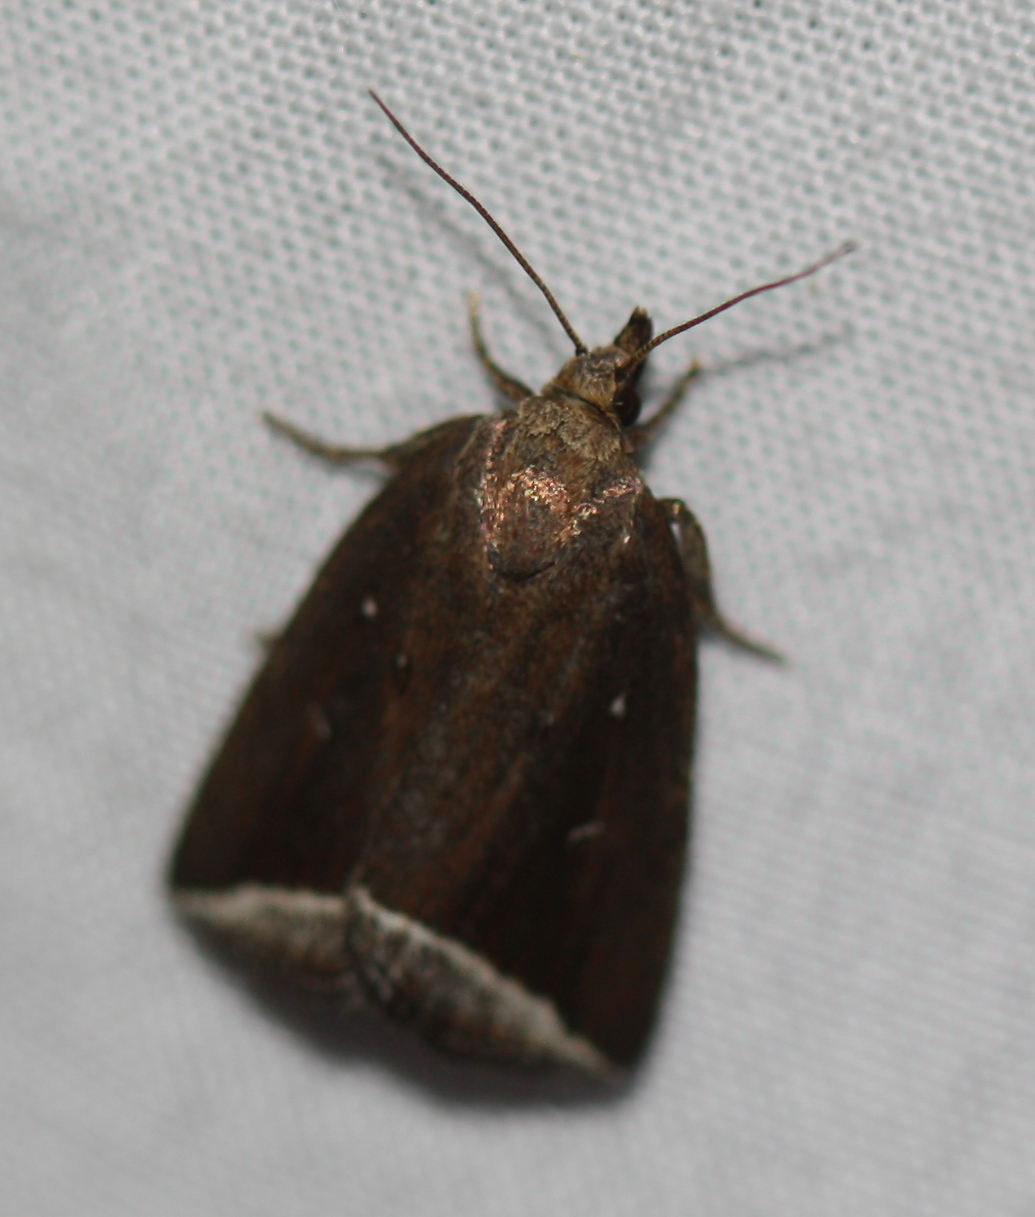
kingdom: Animalia
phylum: Arthropoda
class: Insecta
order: Lepidoptera
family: Erebidae
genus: Capis
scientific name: Capis curvata
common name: Curved halter moth
